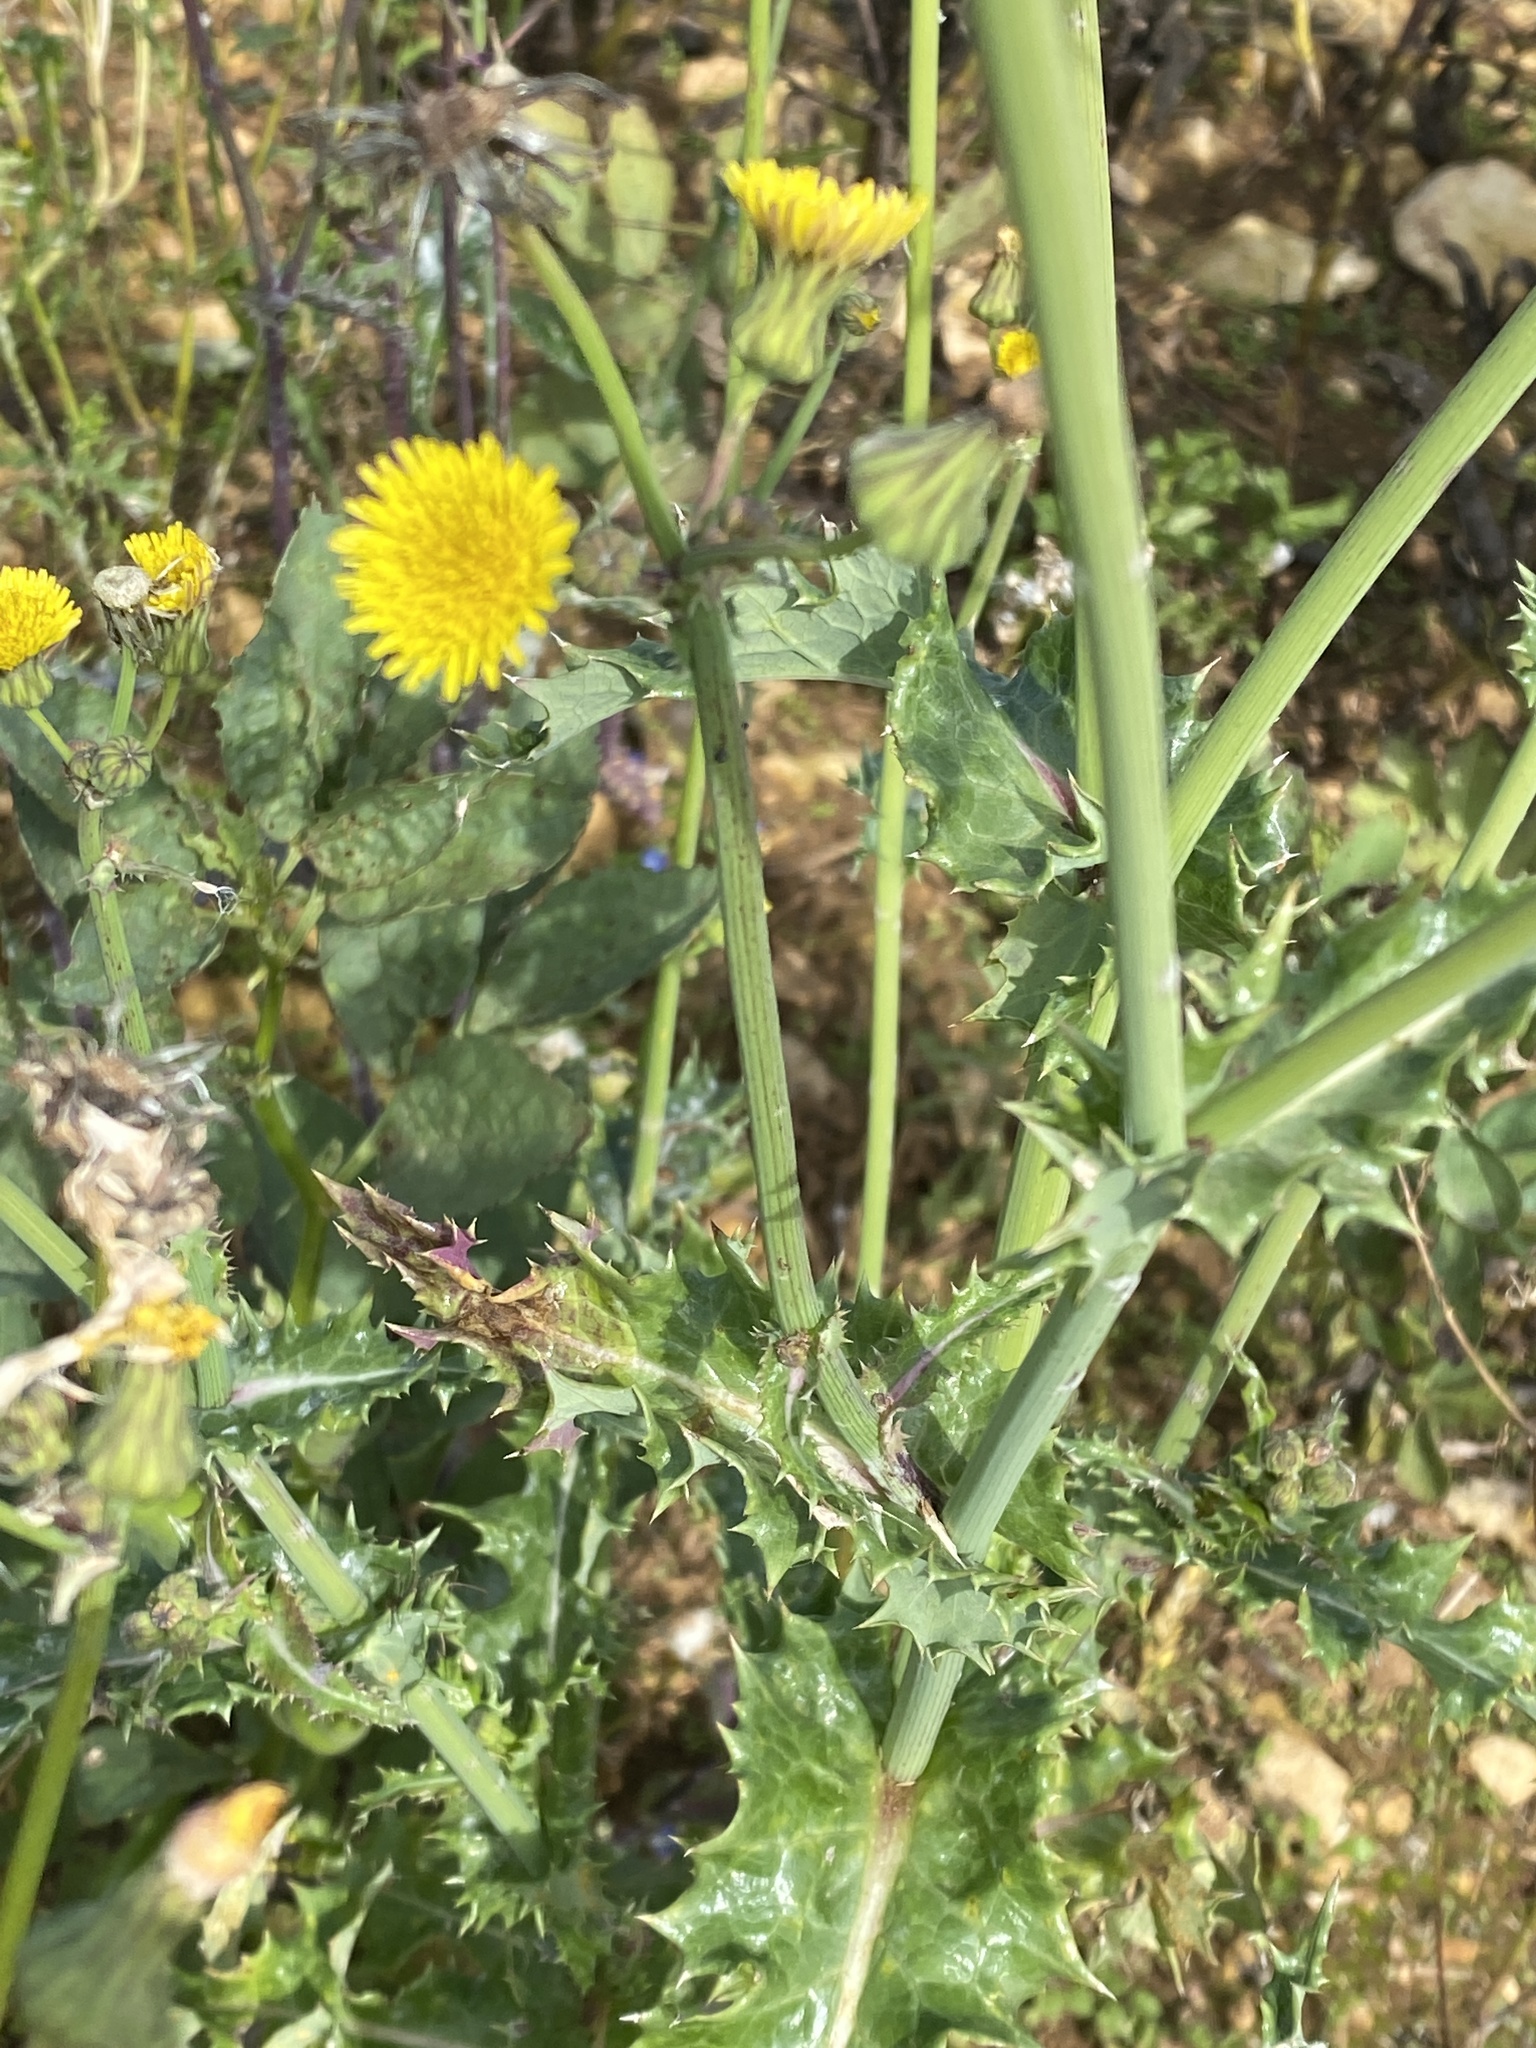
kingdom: Plantae
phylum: Tracheophyta
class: Magnoliopsida
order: Asterales
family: Asteraceae
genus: Sonchus
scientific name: Sonchus asper
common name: Prickly sow-thistle
